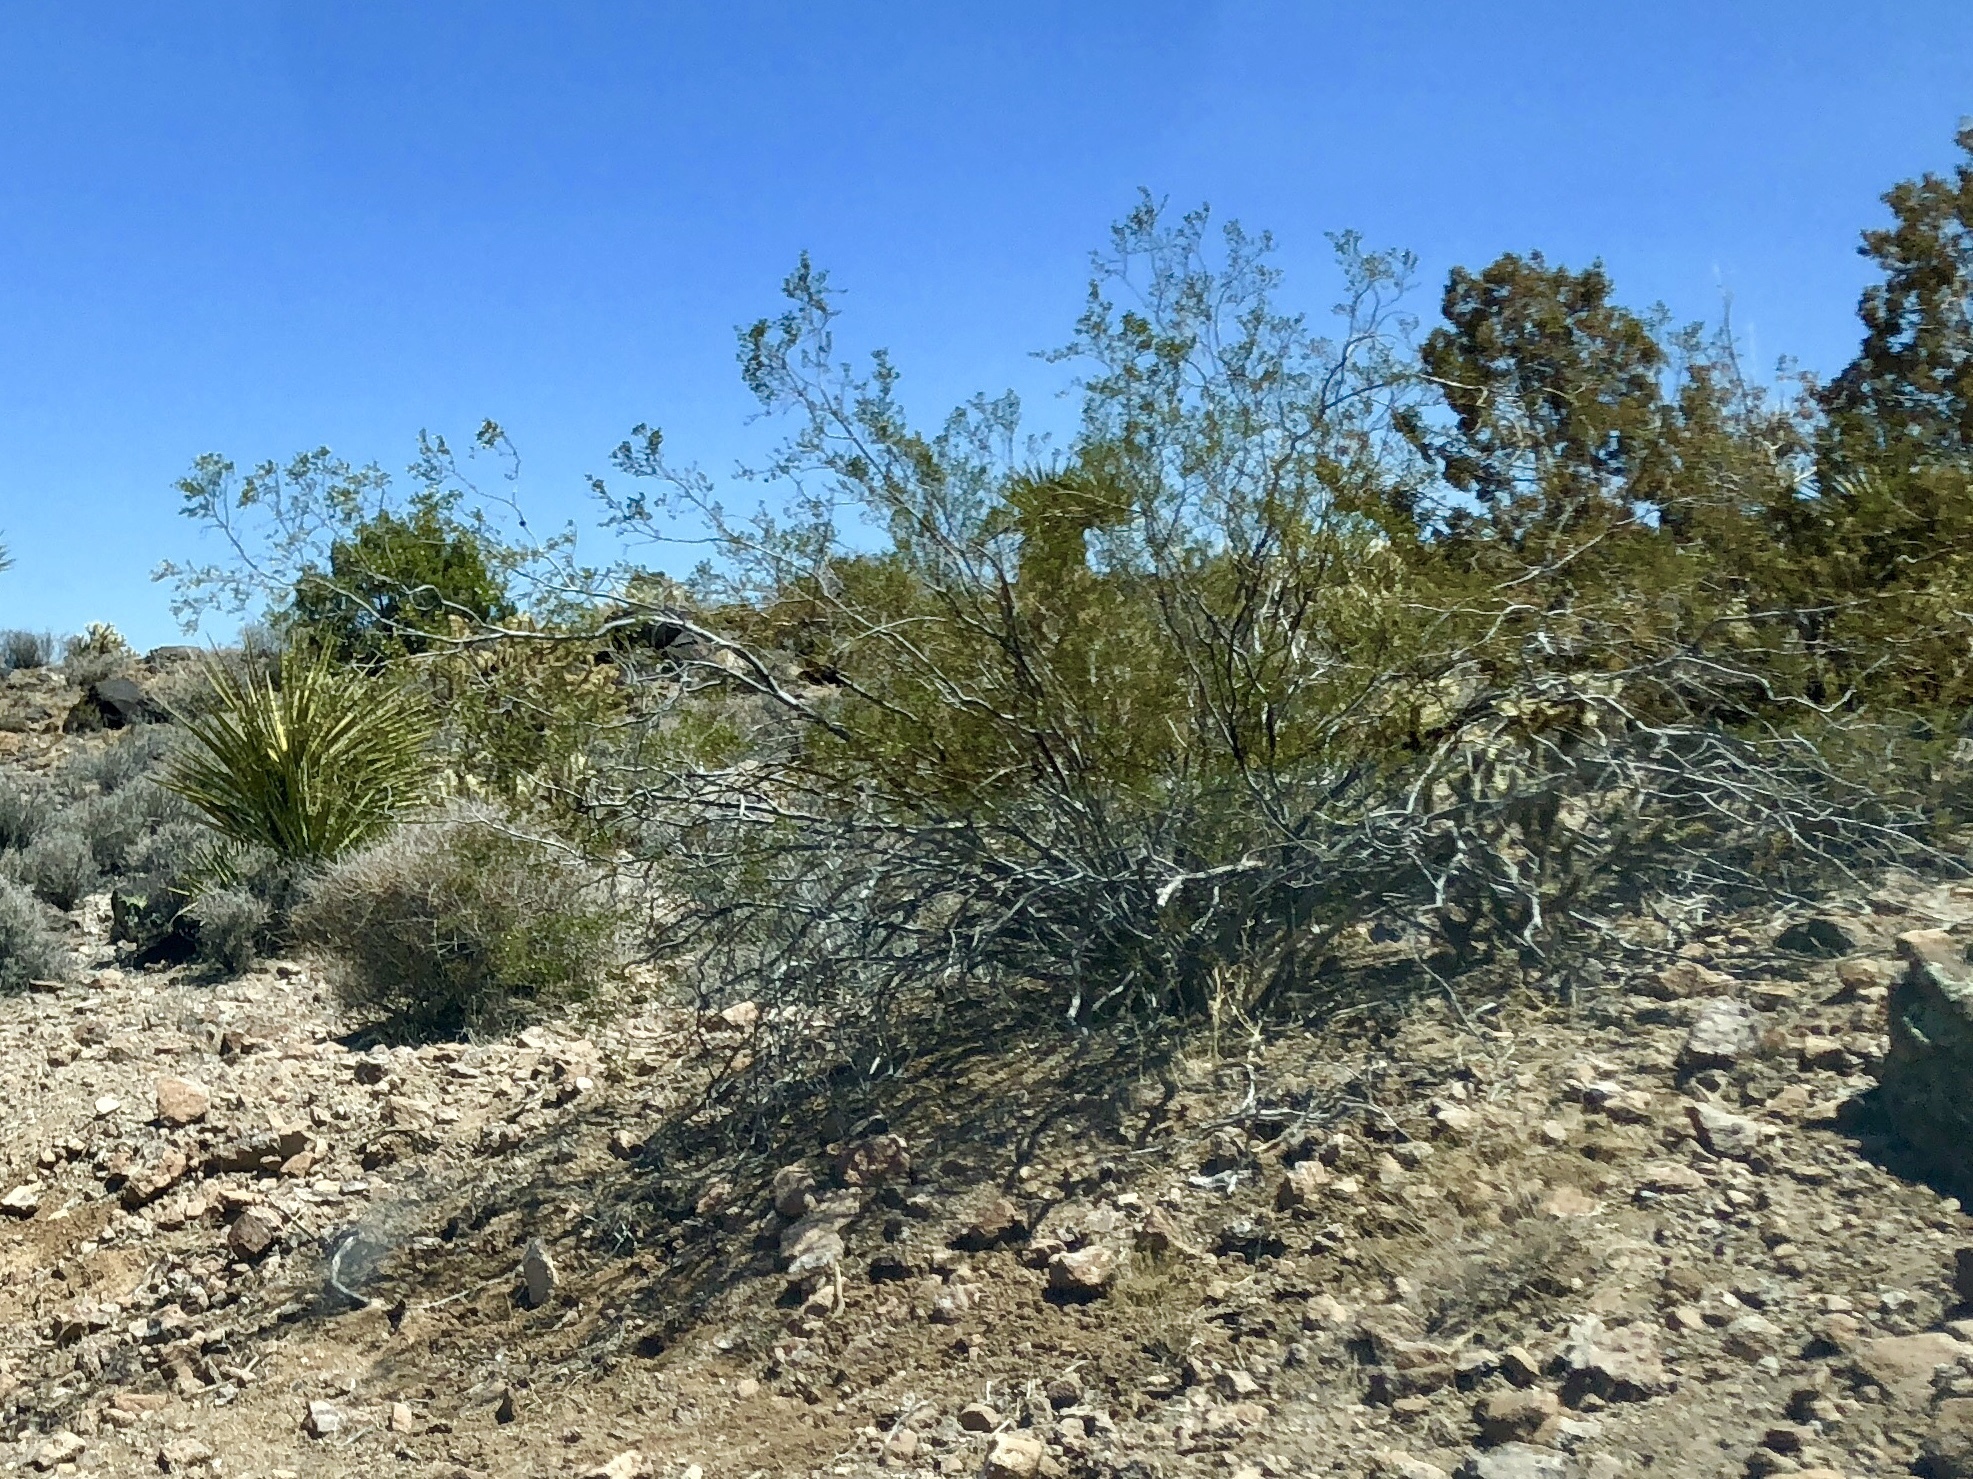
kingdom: Plantae
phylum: Tracheophyta
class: Magnoliopsida
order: Zygophyllales
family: Zygophyllaceae
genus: Larrea
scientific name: Larrea tridentata
